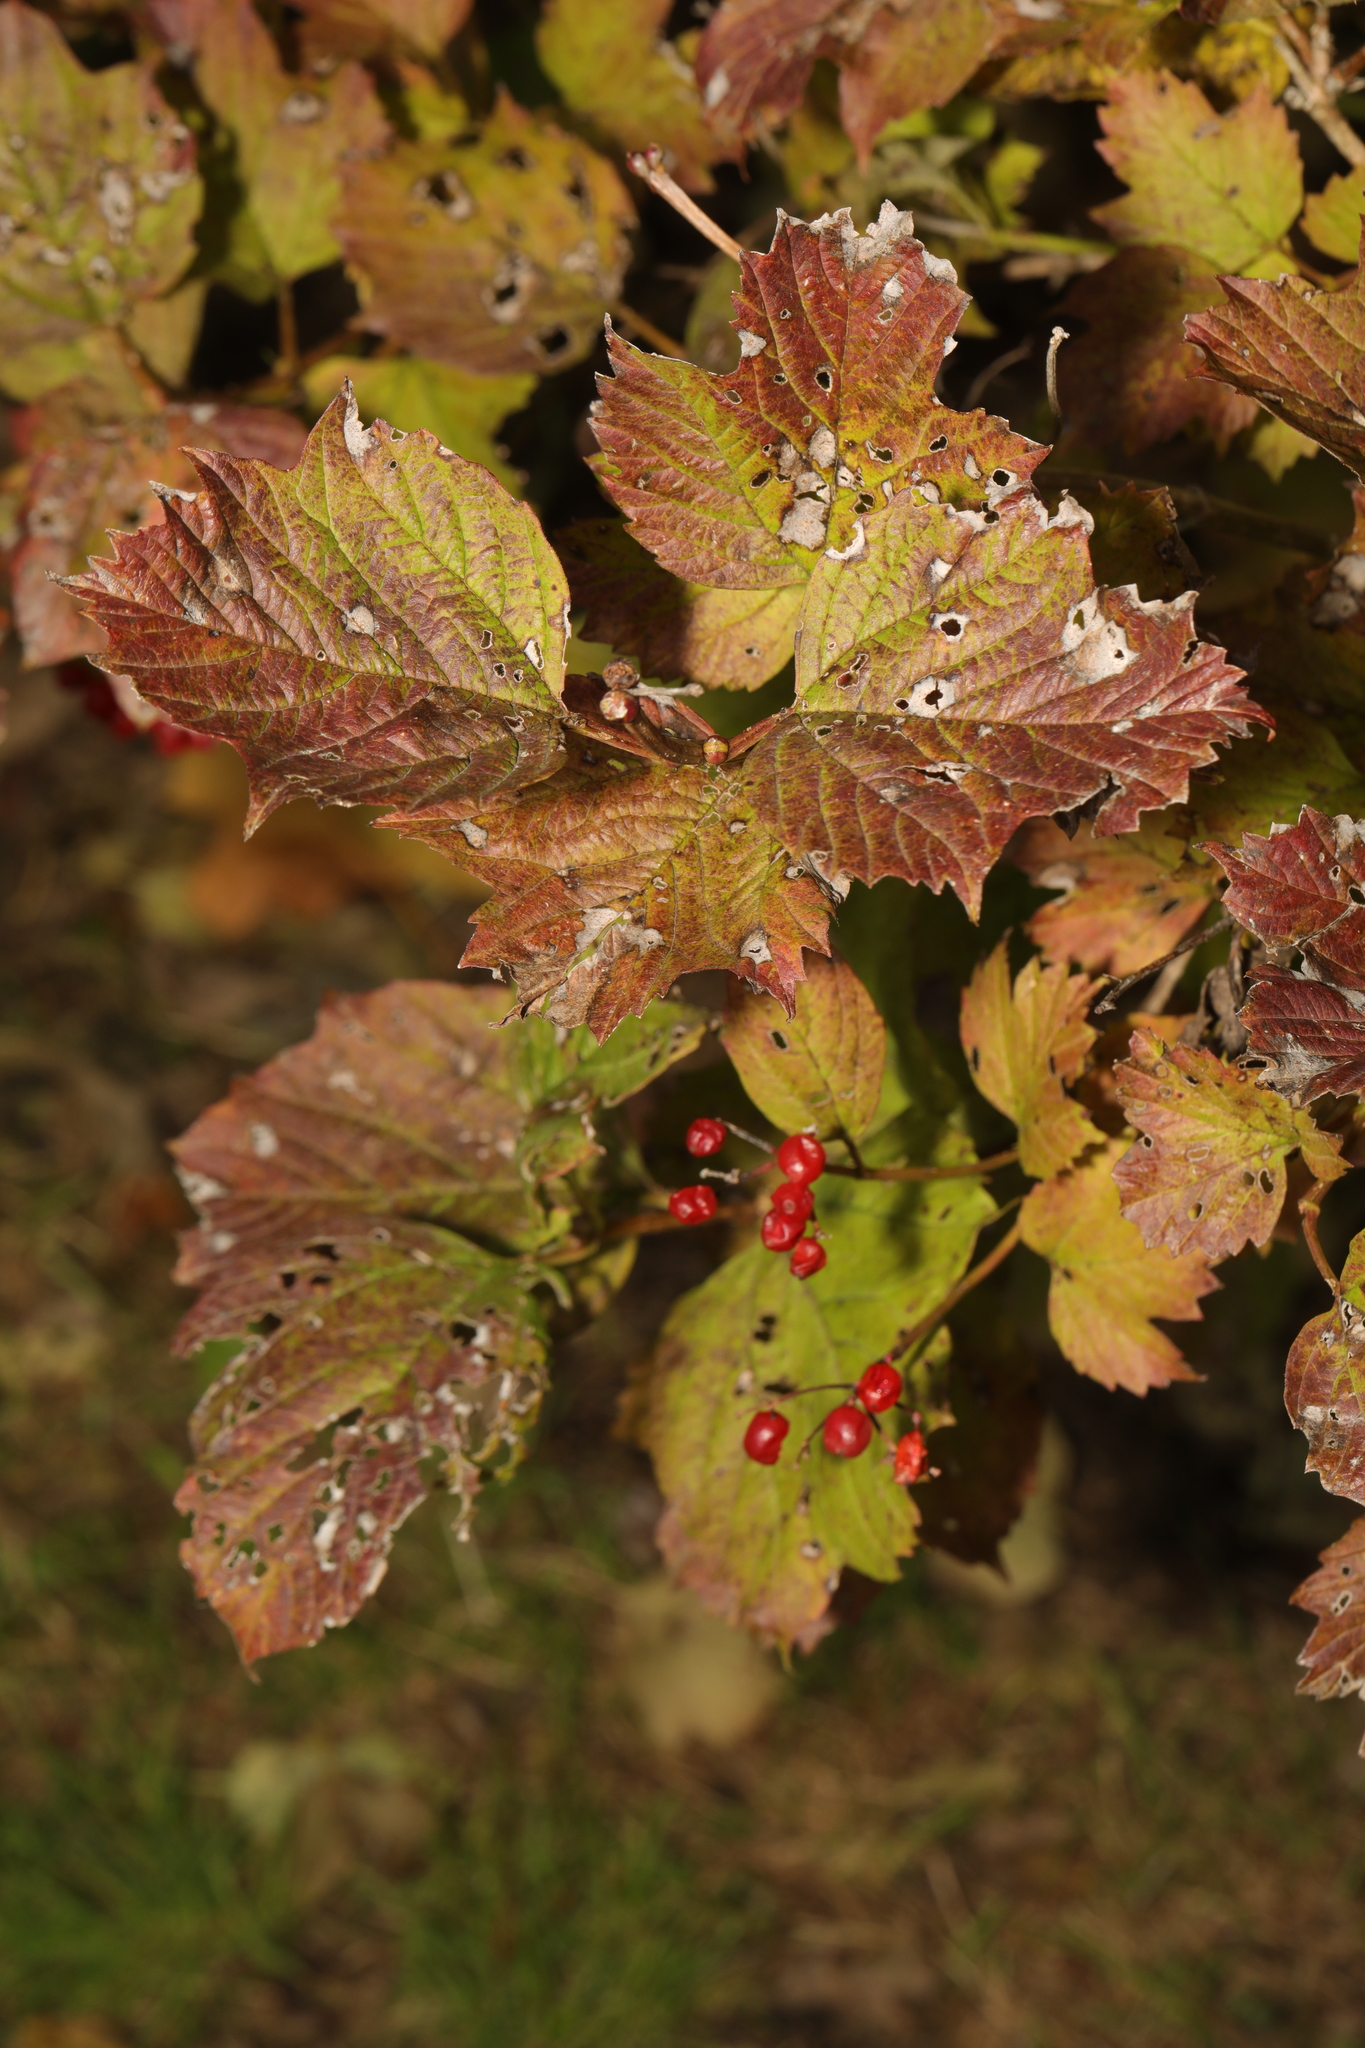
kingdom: Plantae
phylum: Tracheophyta
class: Magnoliopsida
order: Dipsacales
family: Viburnaceae
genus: Viburnum
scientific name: Viburnum opulus
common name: Guelder-rose
